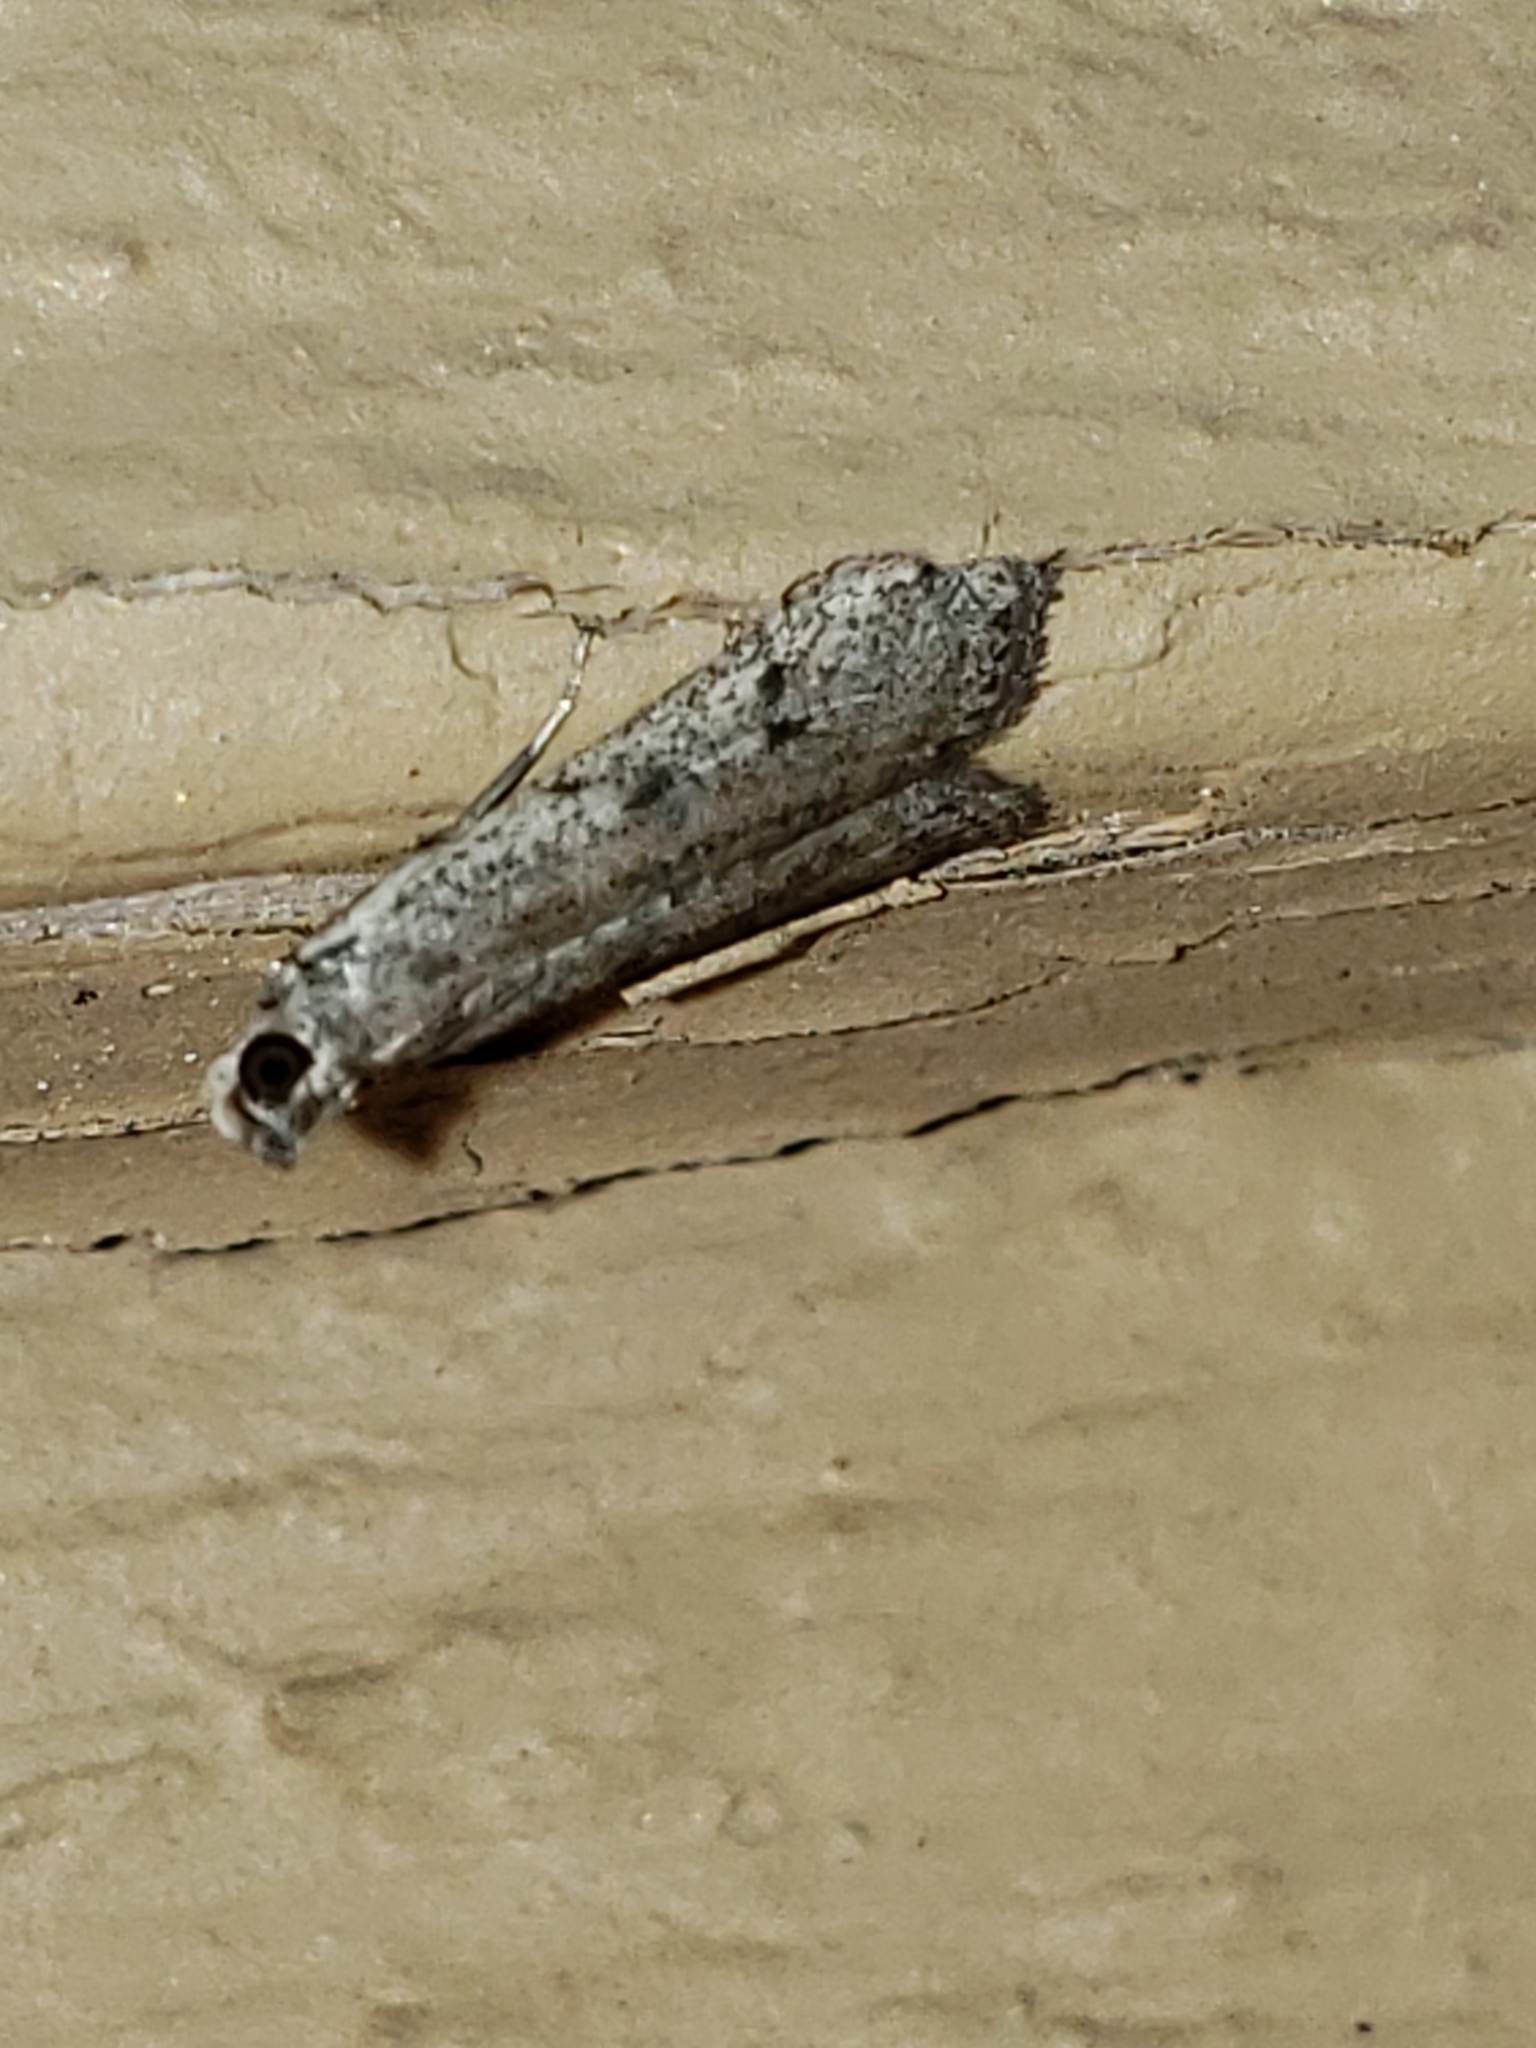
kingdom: Animalia
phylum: Arthropoda
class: Insecta
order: Lepidoptera
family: Pyralidae
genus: Phycitodes
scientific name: Phycitodes mucidellus
